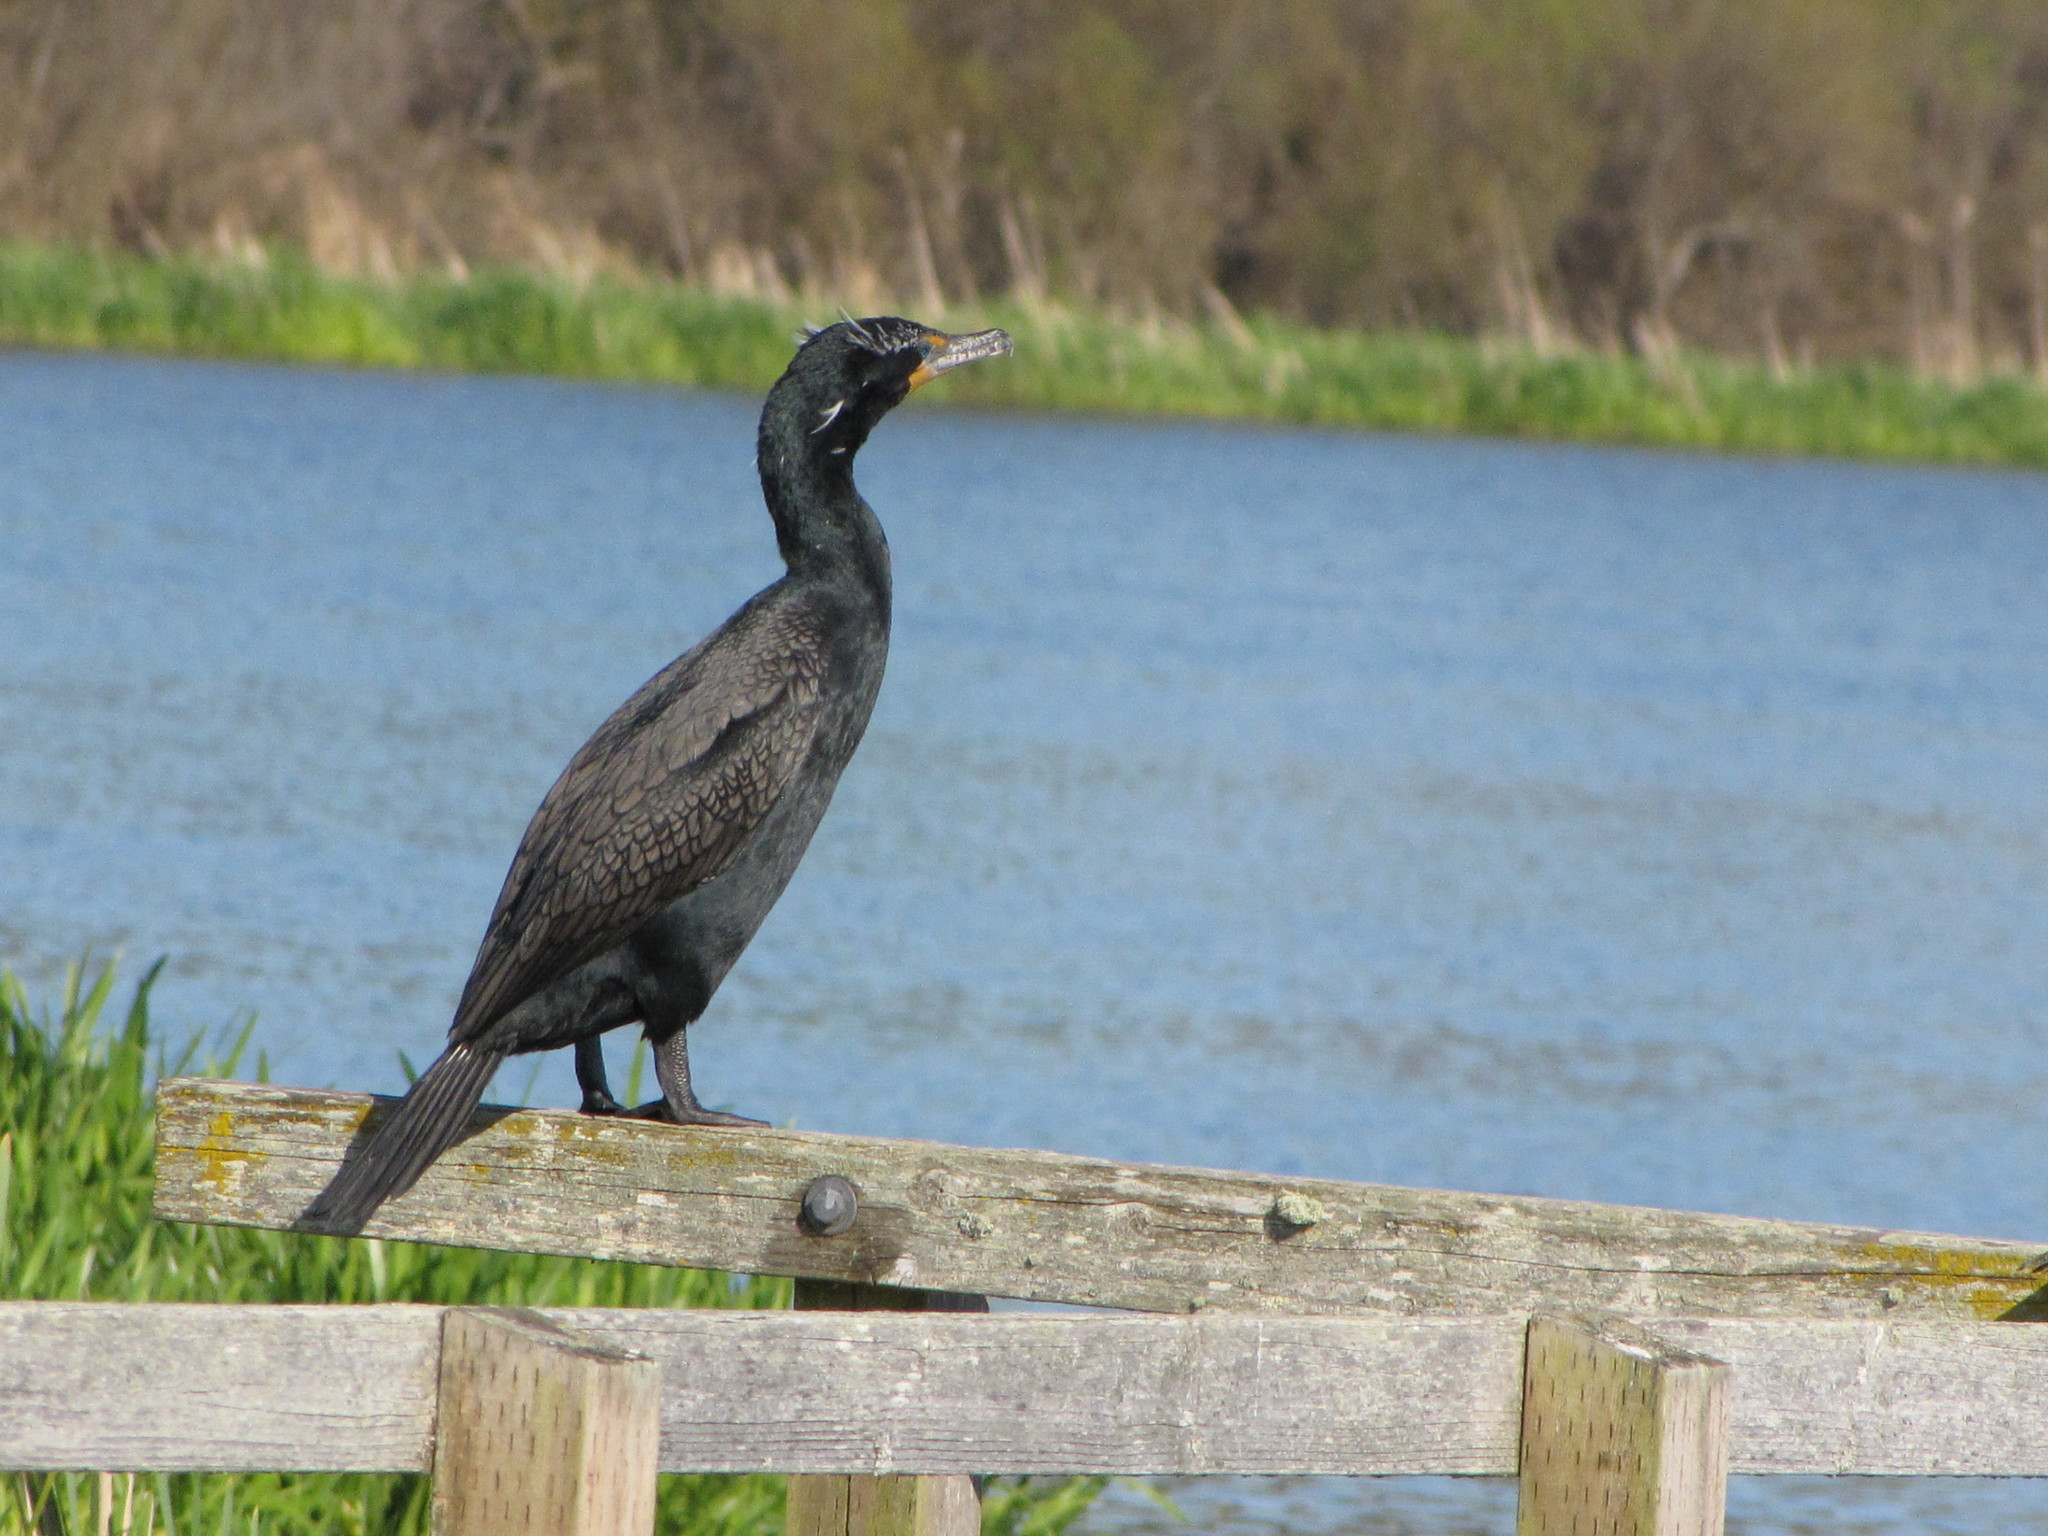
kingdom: Animalia
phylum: Chordata
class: Aves
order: Suliformes
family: Phalacrocoracidae
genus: Phalacrocorax
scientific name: Phalacrocorax auritus
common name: Double-crested cormorant
